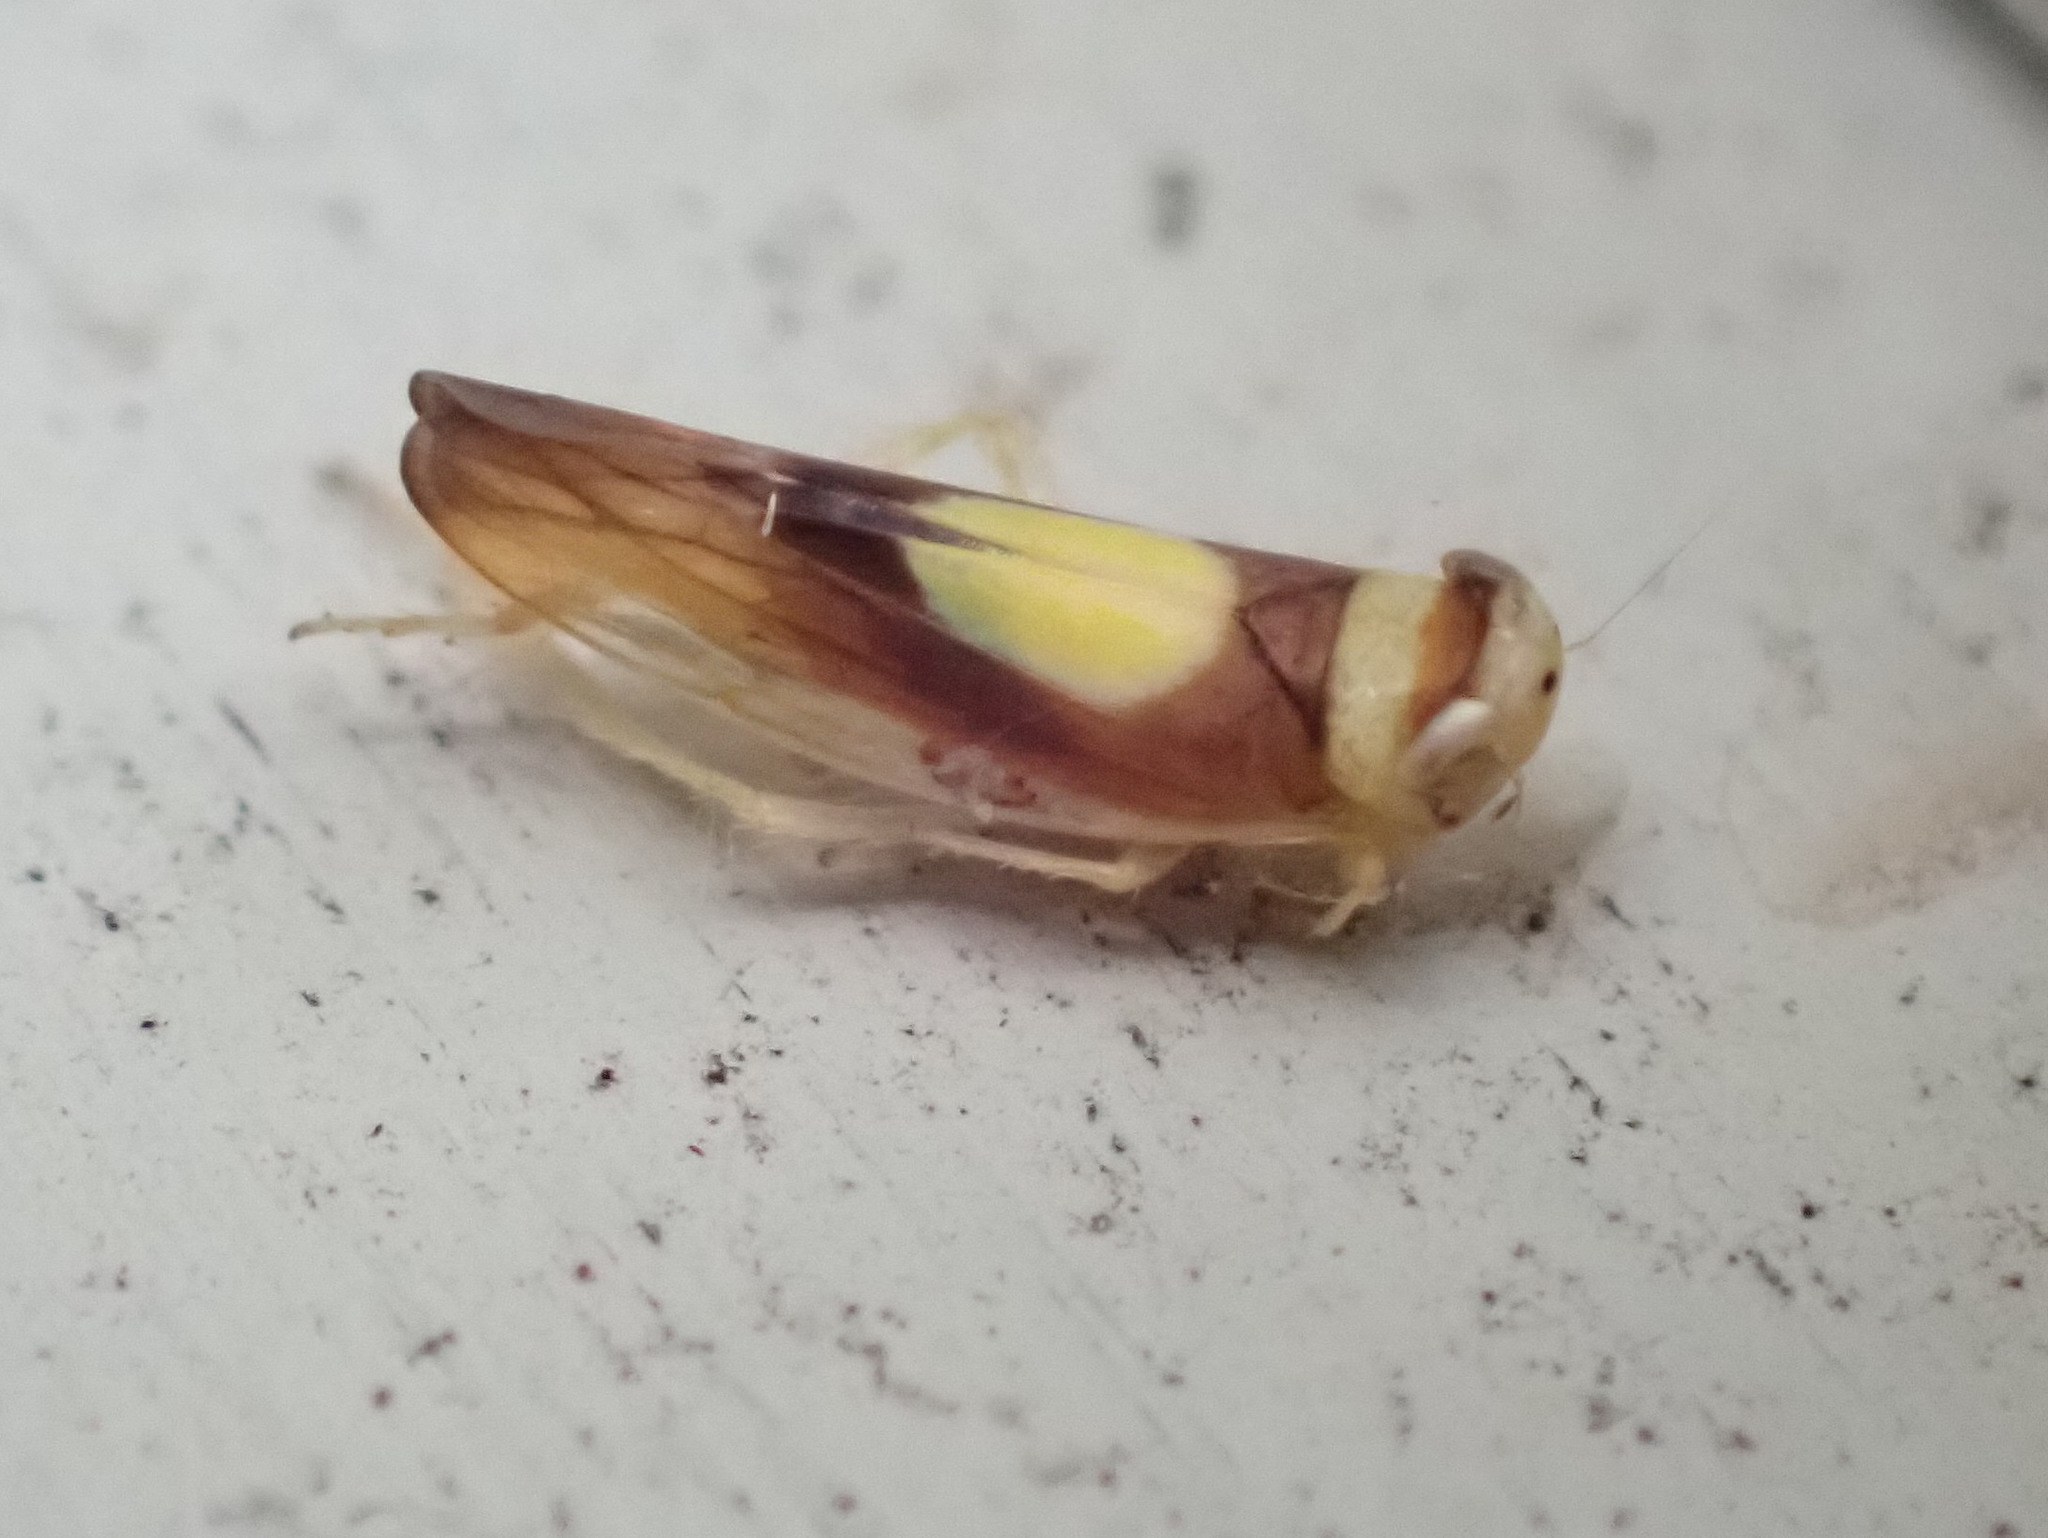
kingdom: Animalia
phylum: Arthropoda
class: Insecta
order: Hemiptera
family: Cicadellidae
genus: Colladonus
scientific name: Colladonus clitellarius
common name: The saddleback leafhopper
